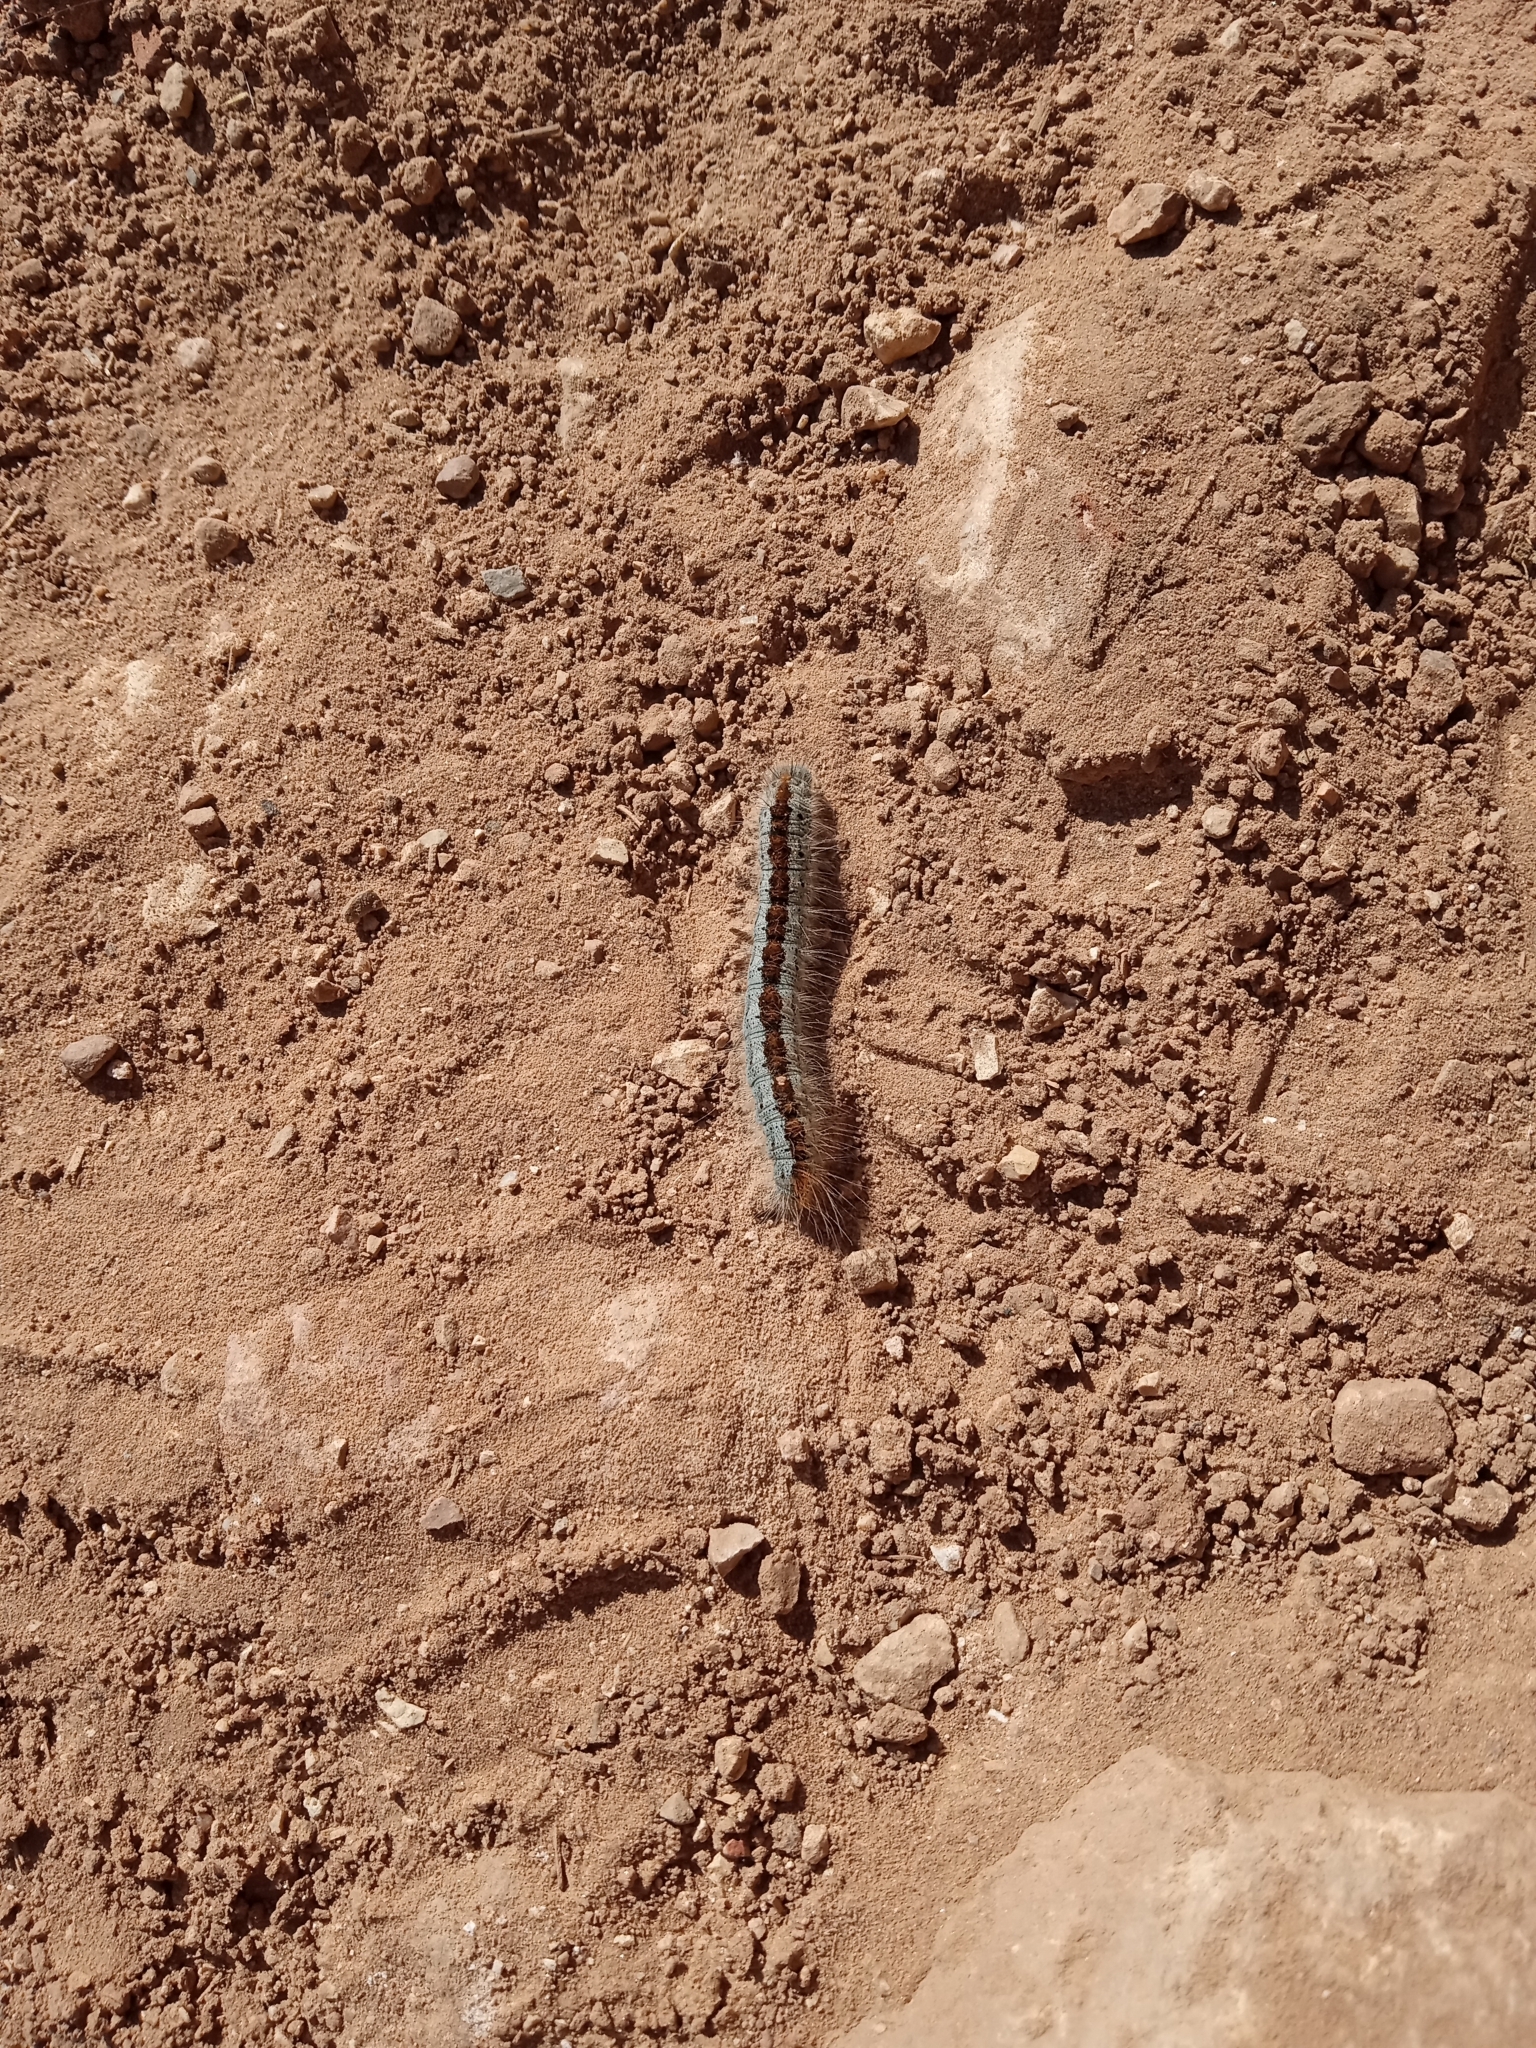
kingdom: Animalia
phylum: Arthropoda
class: Insecta
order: Lepidoptera
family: Lasiocampidae
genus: Malacosoma
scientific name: Malacosoma incurva
